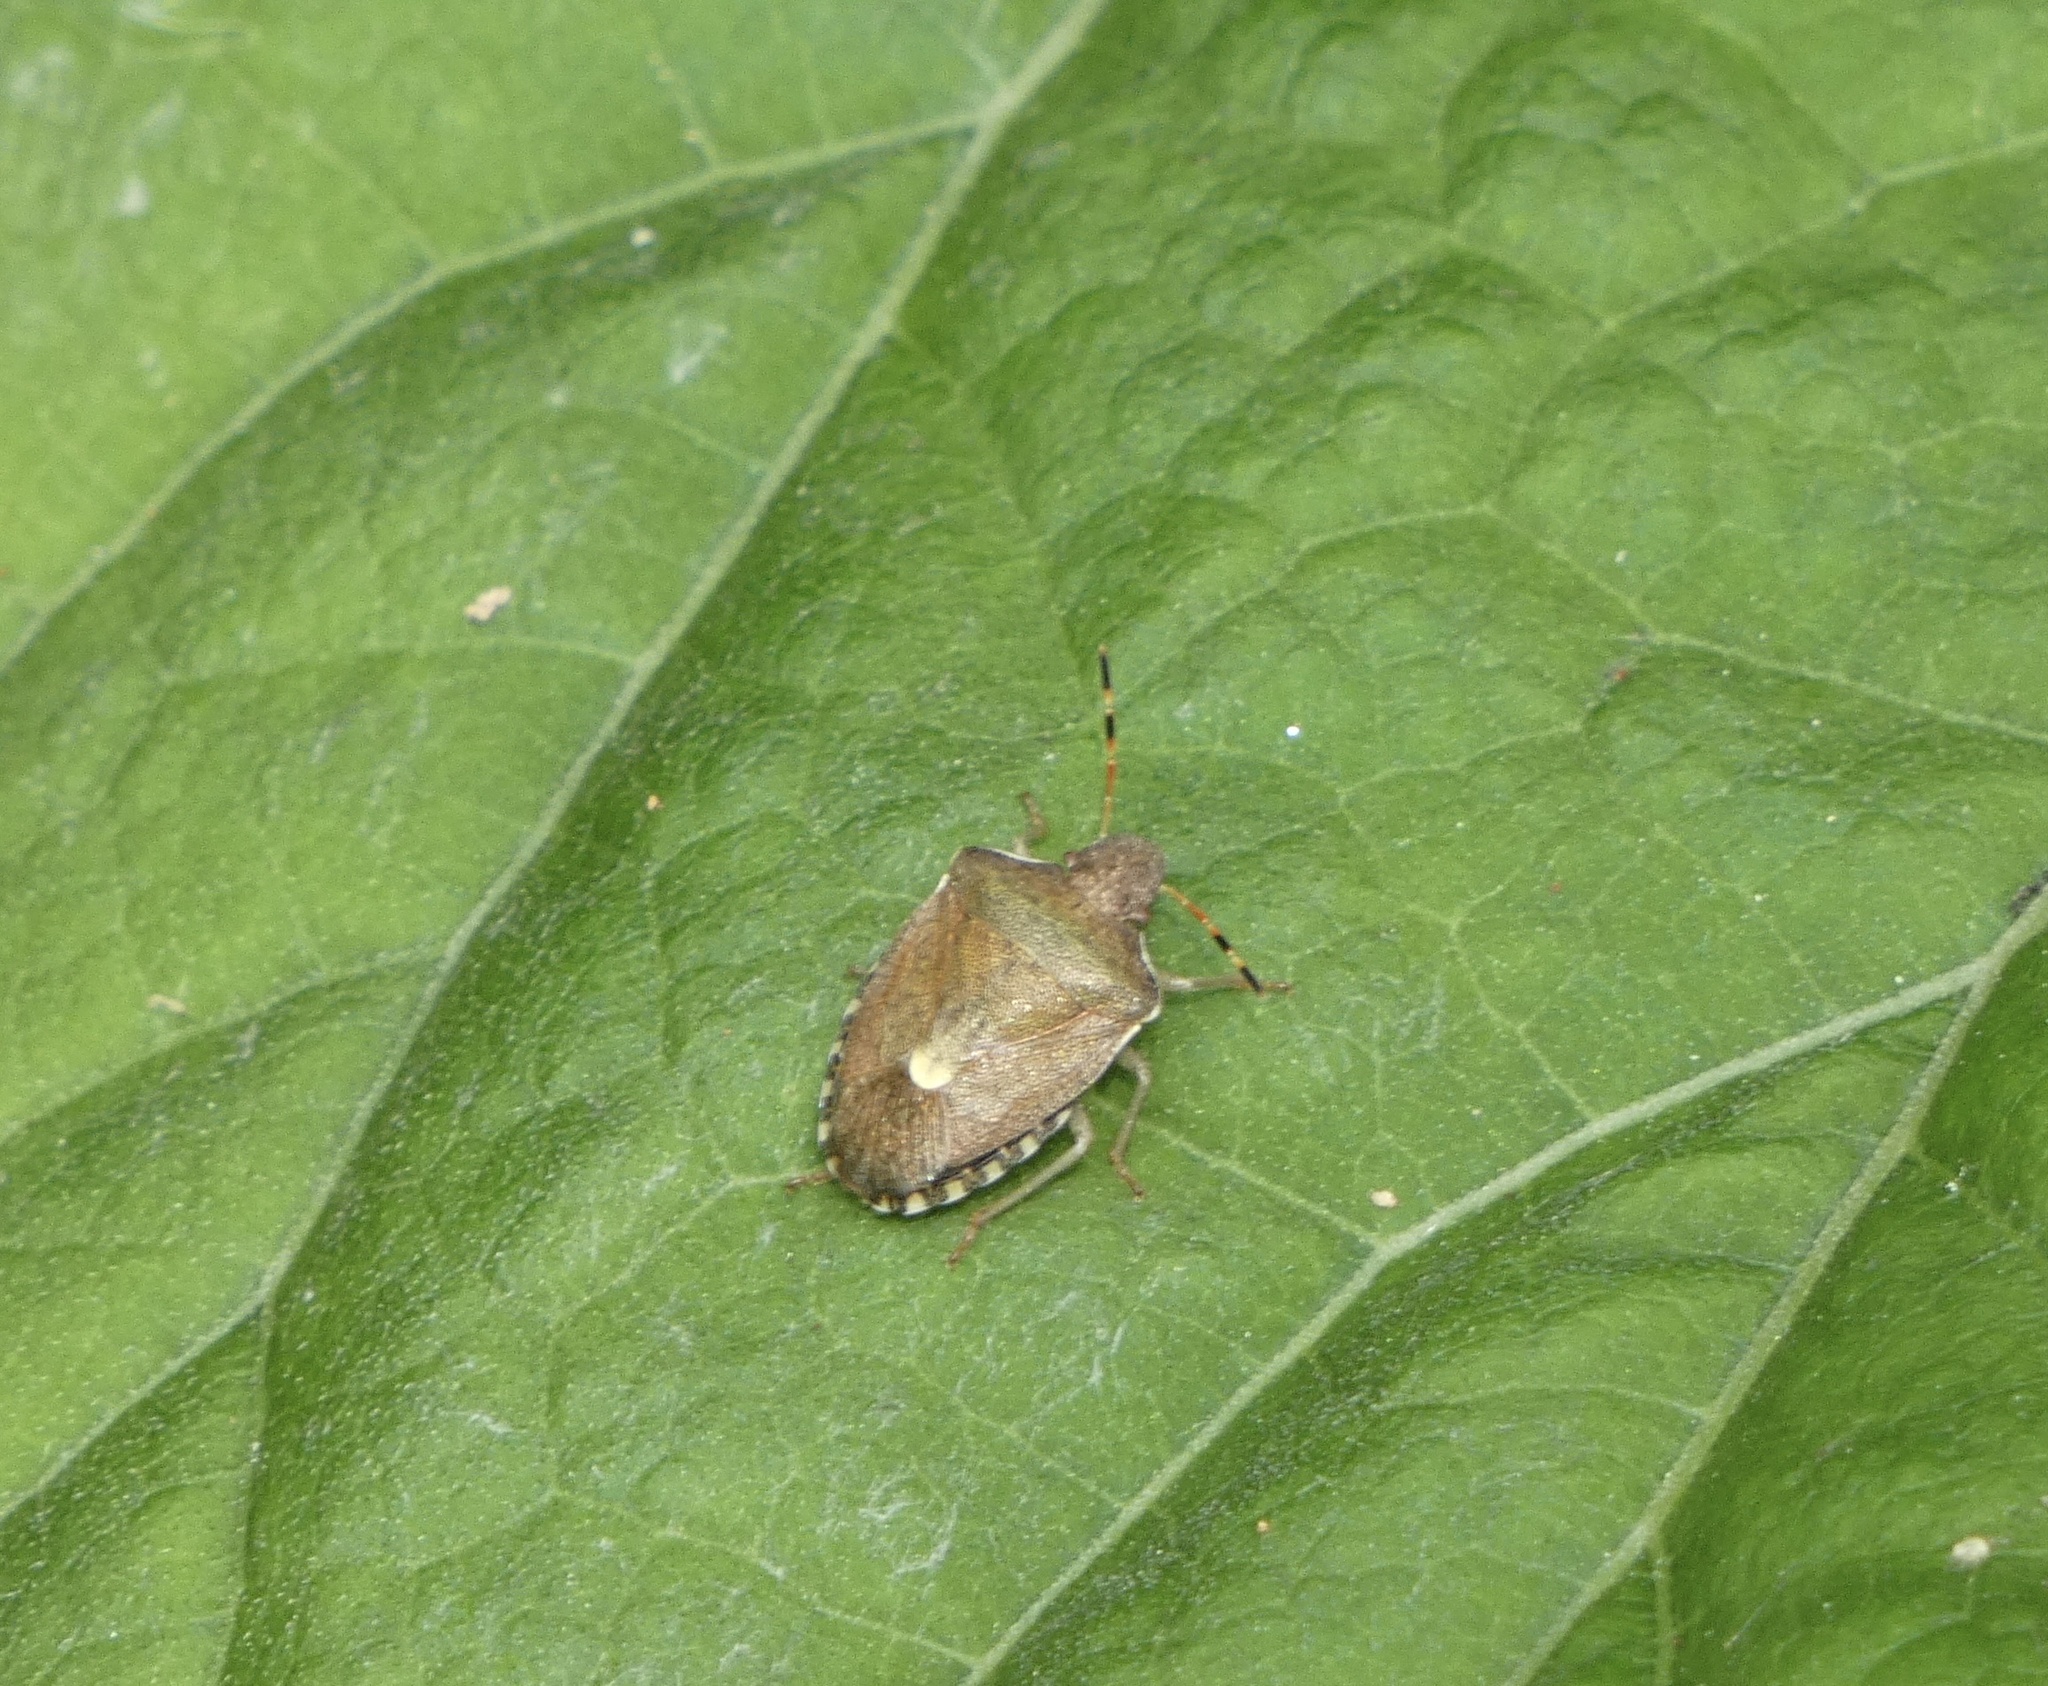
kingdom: Animalia
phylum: Arthropoda
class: Insecta
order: Hemiptera
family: Pentatomidae
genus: Holcostethus
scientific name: Holcostethus strictus
